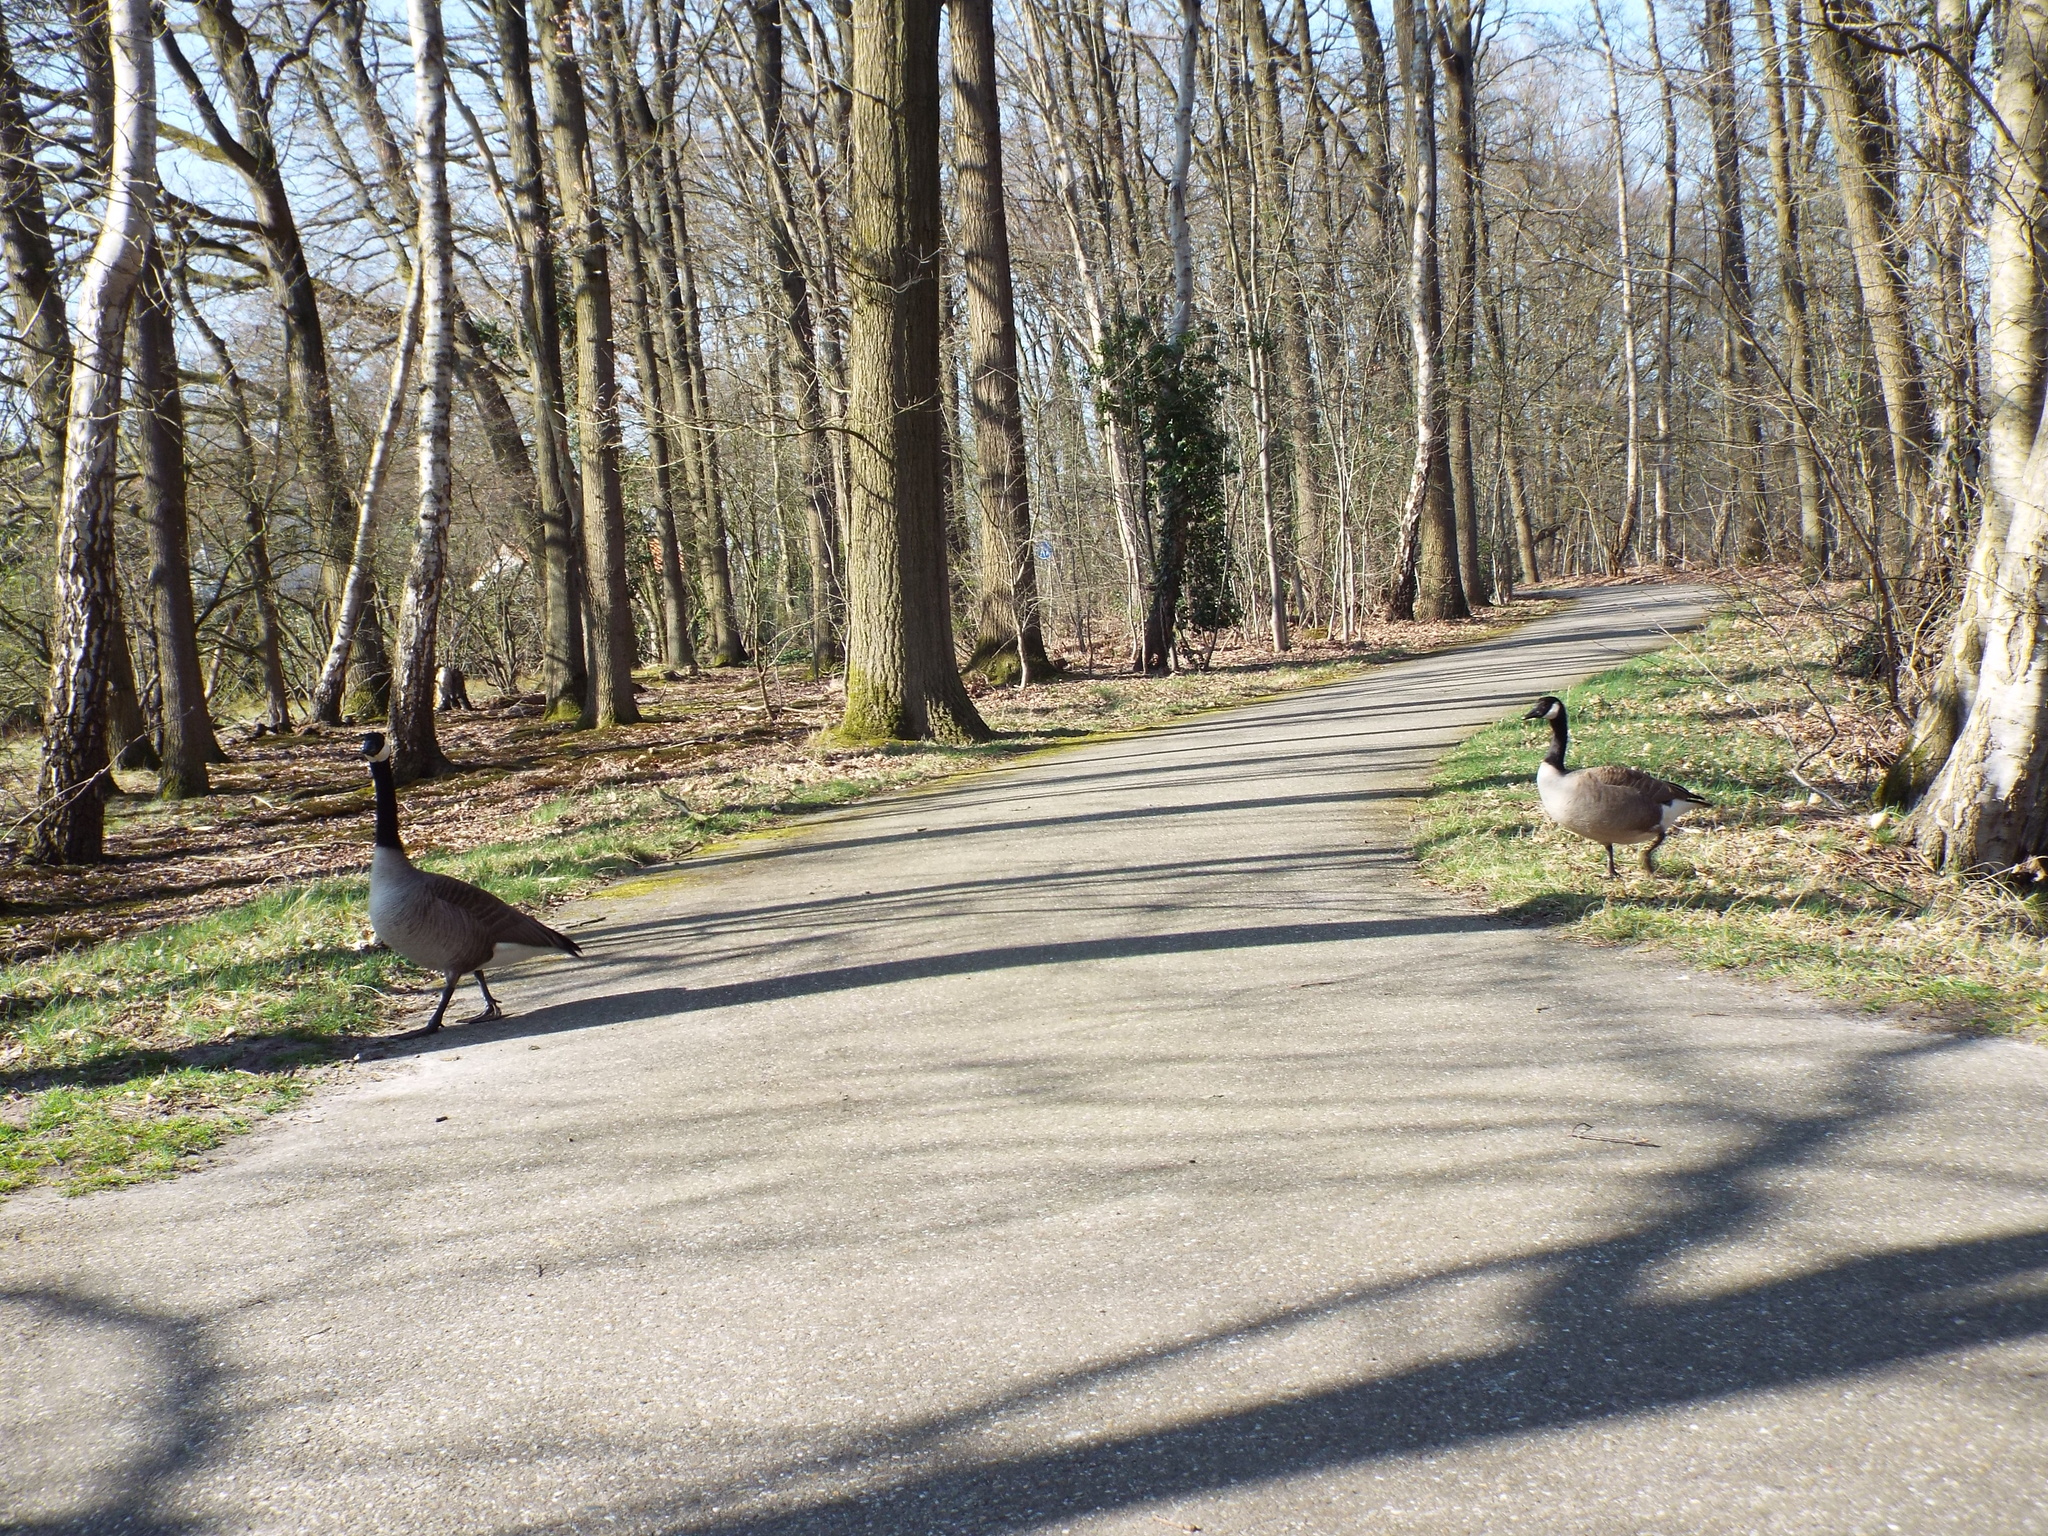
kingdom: Animalia
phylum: Chordata
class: Aves
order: Anseriformes
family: Anatidae
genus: Branta
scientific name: Branta canadensis
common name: Canada goose
